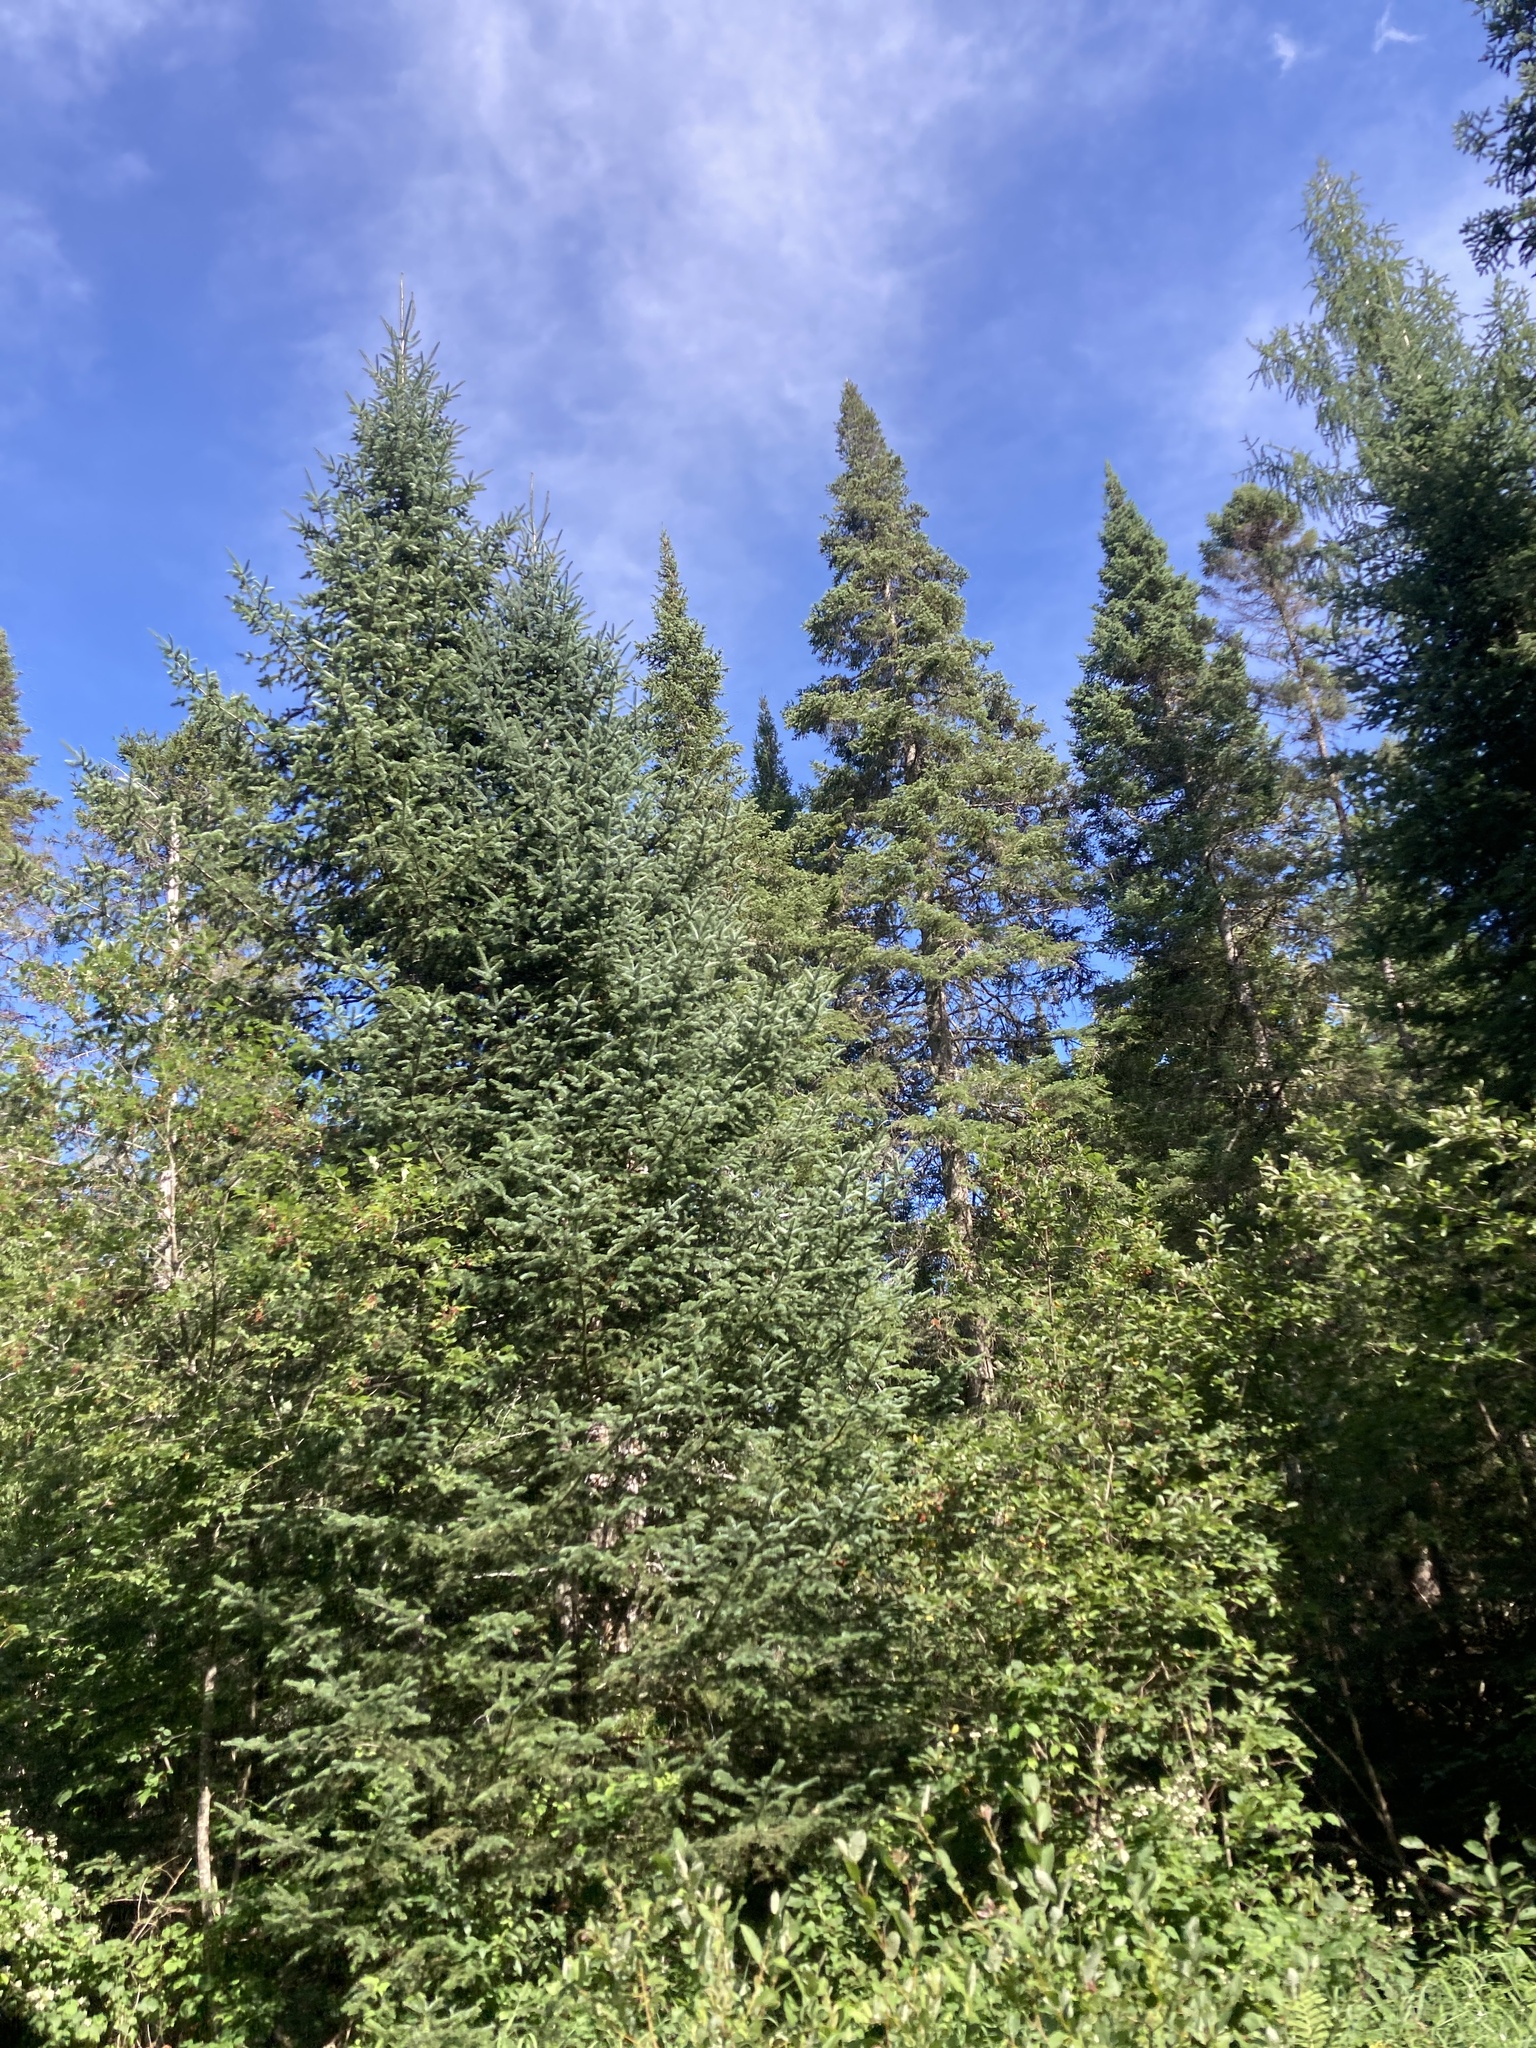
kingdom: Plantae
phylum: Tracheophyta
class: Pinopsida
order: Pinales
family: Pinaceae
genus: Abies
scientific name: Abies balsamea
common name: Balsam fir
